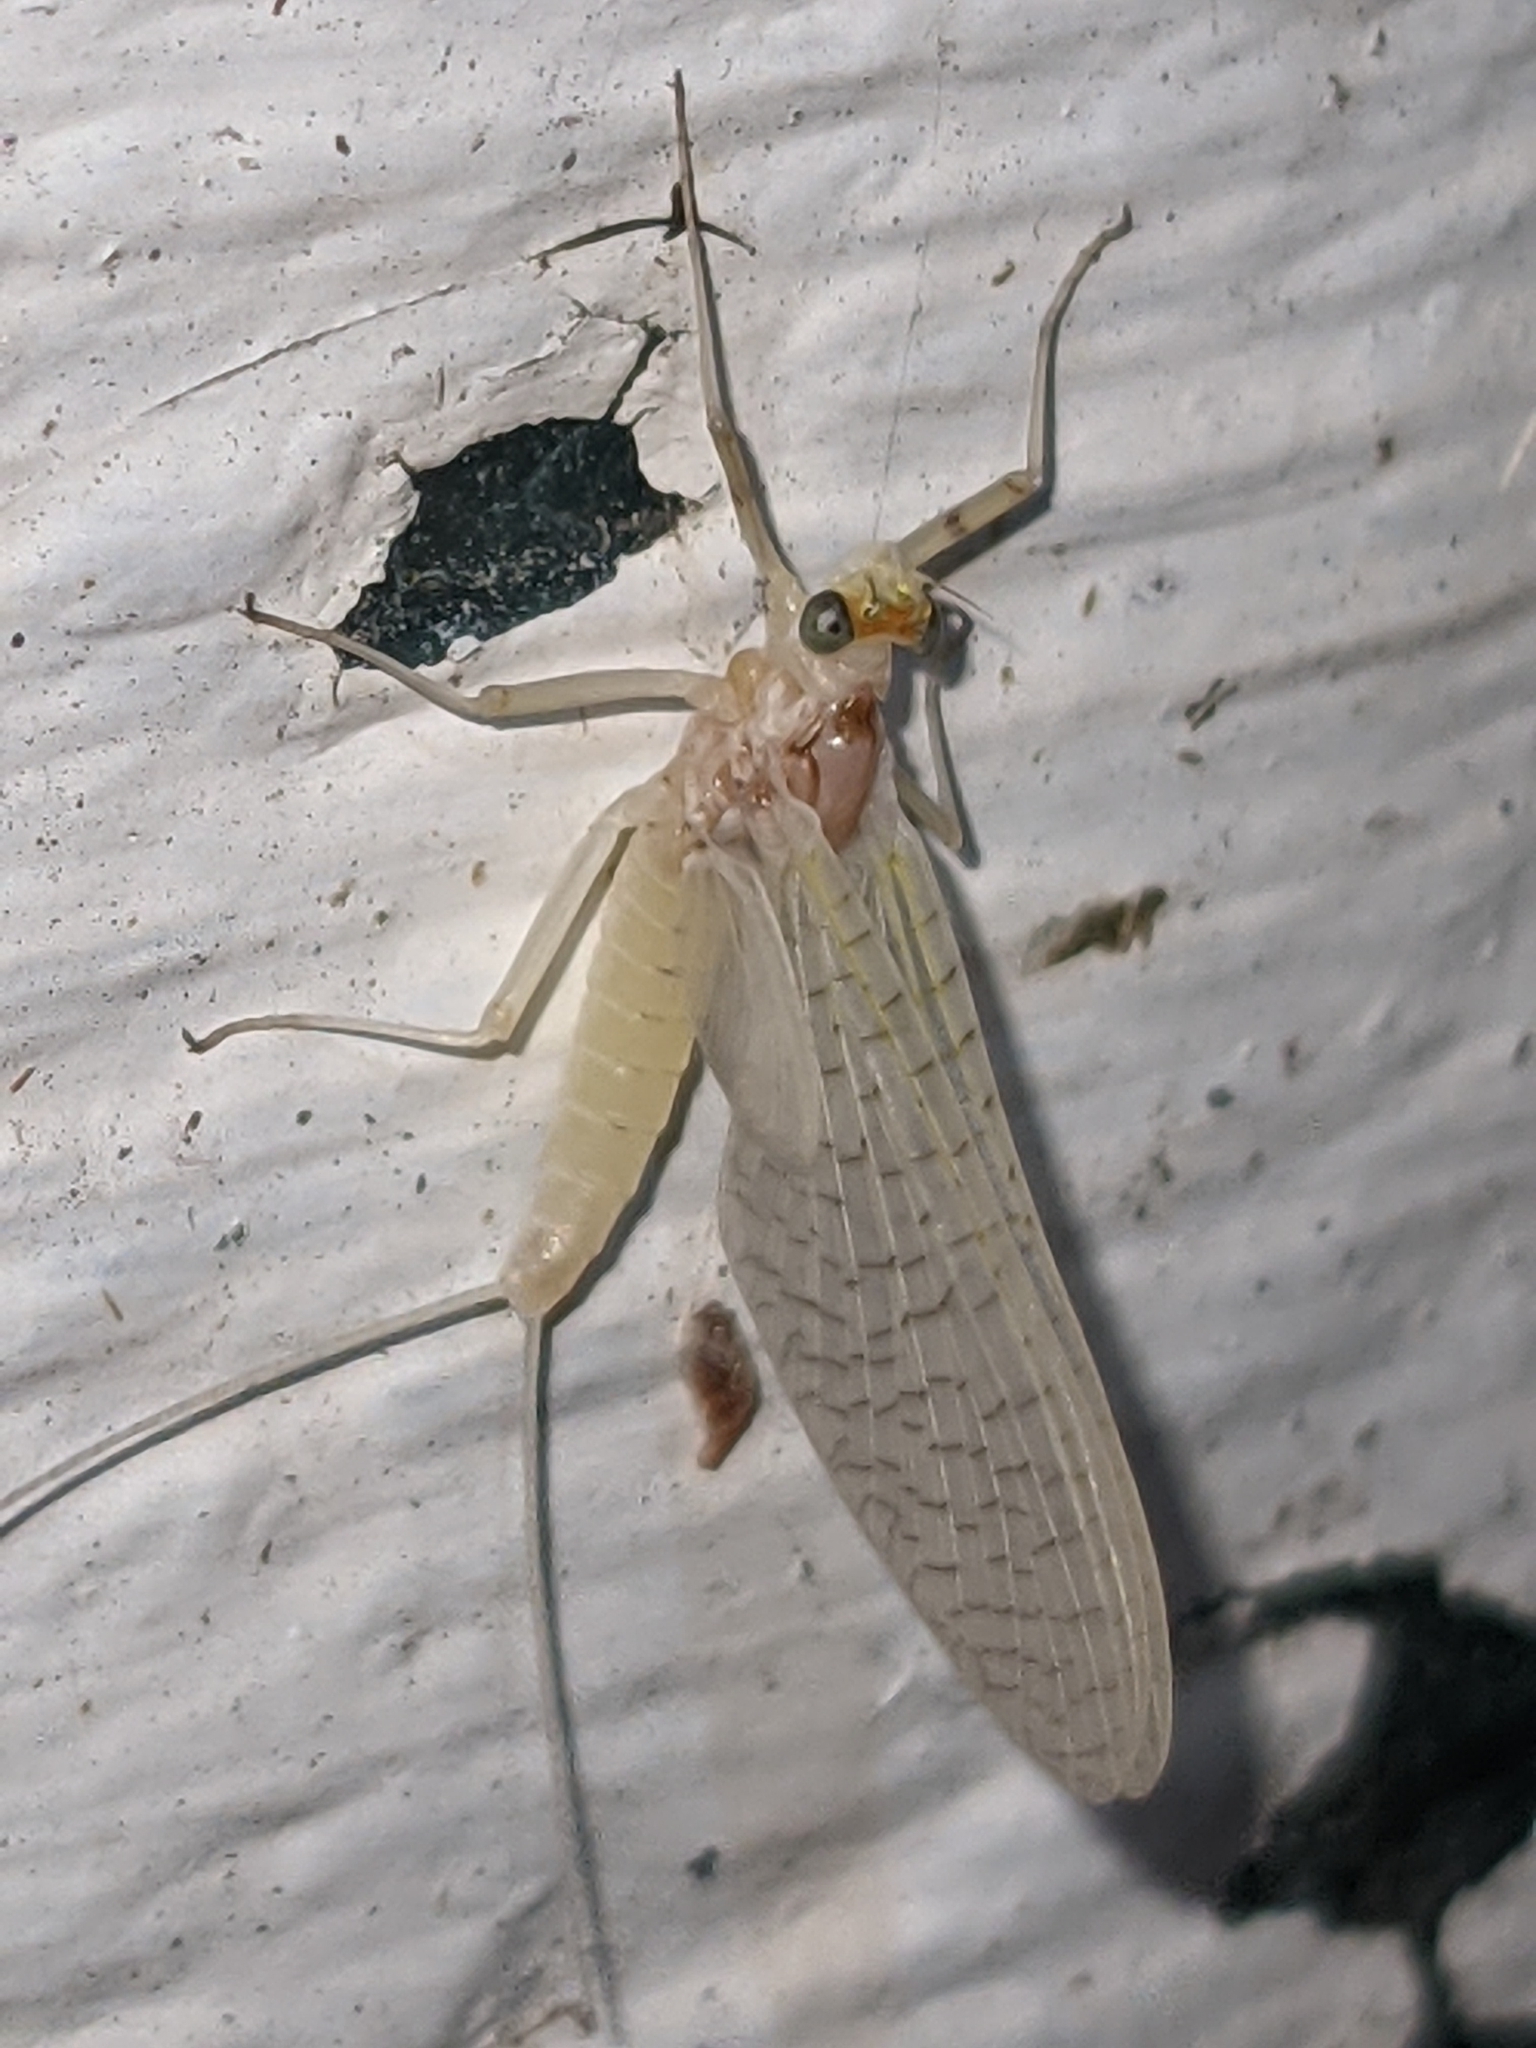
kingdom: Animalia
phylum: Arthropoda
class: Insecta
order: Ephemeroptera
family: Heptageniidae
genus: Maccaffertium
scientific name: Maccaffertium terminatum
